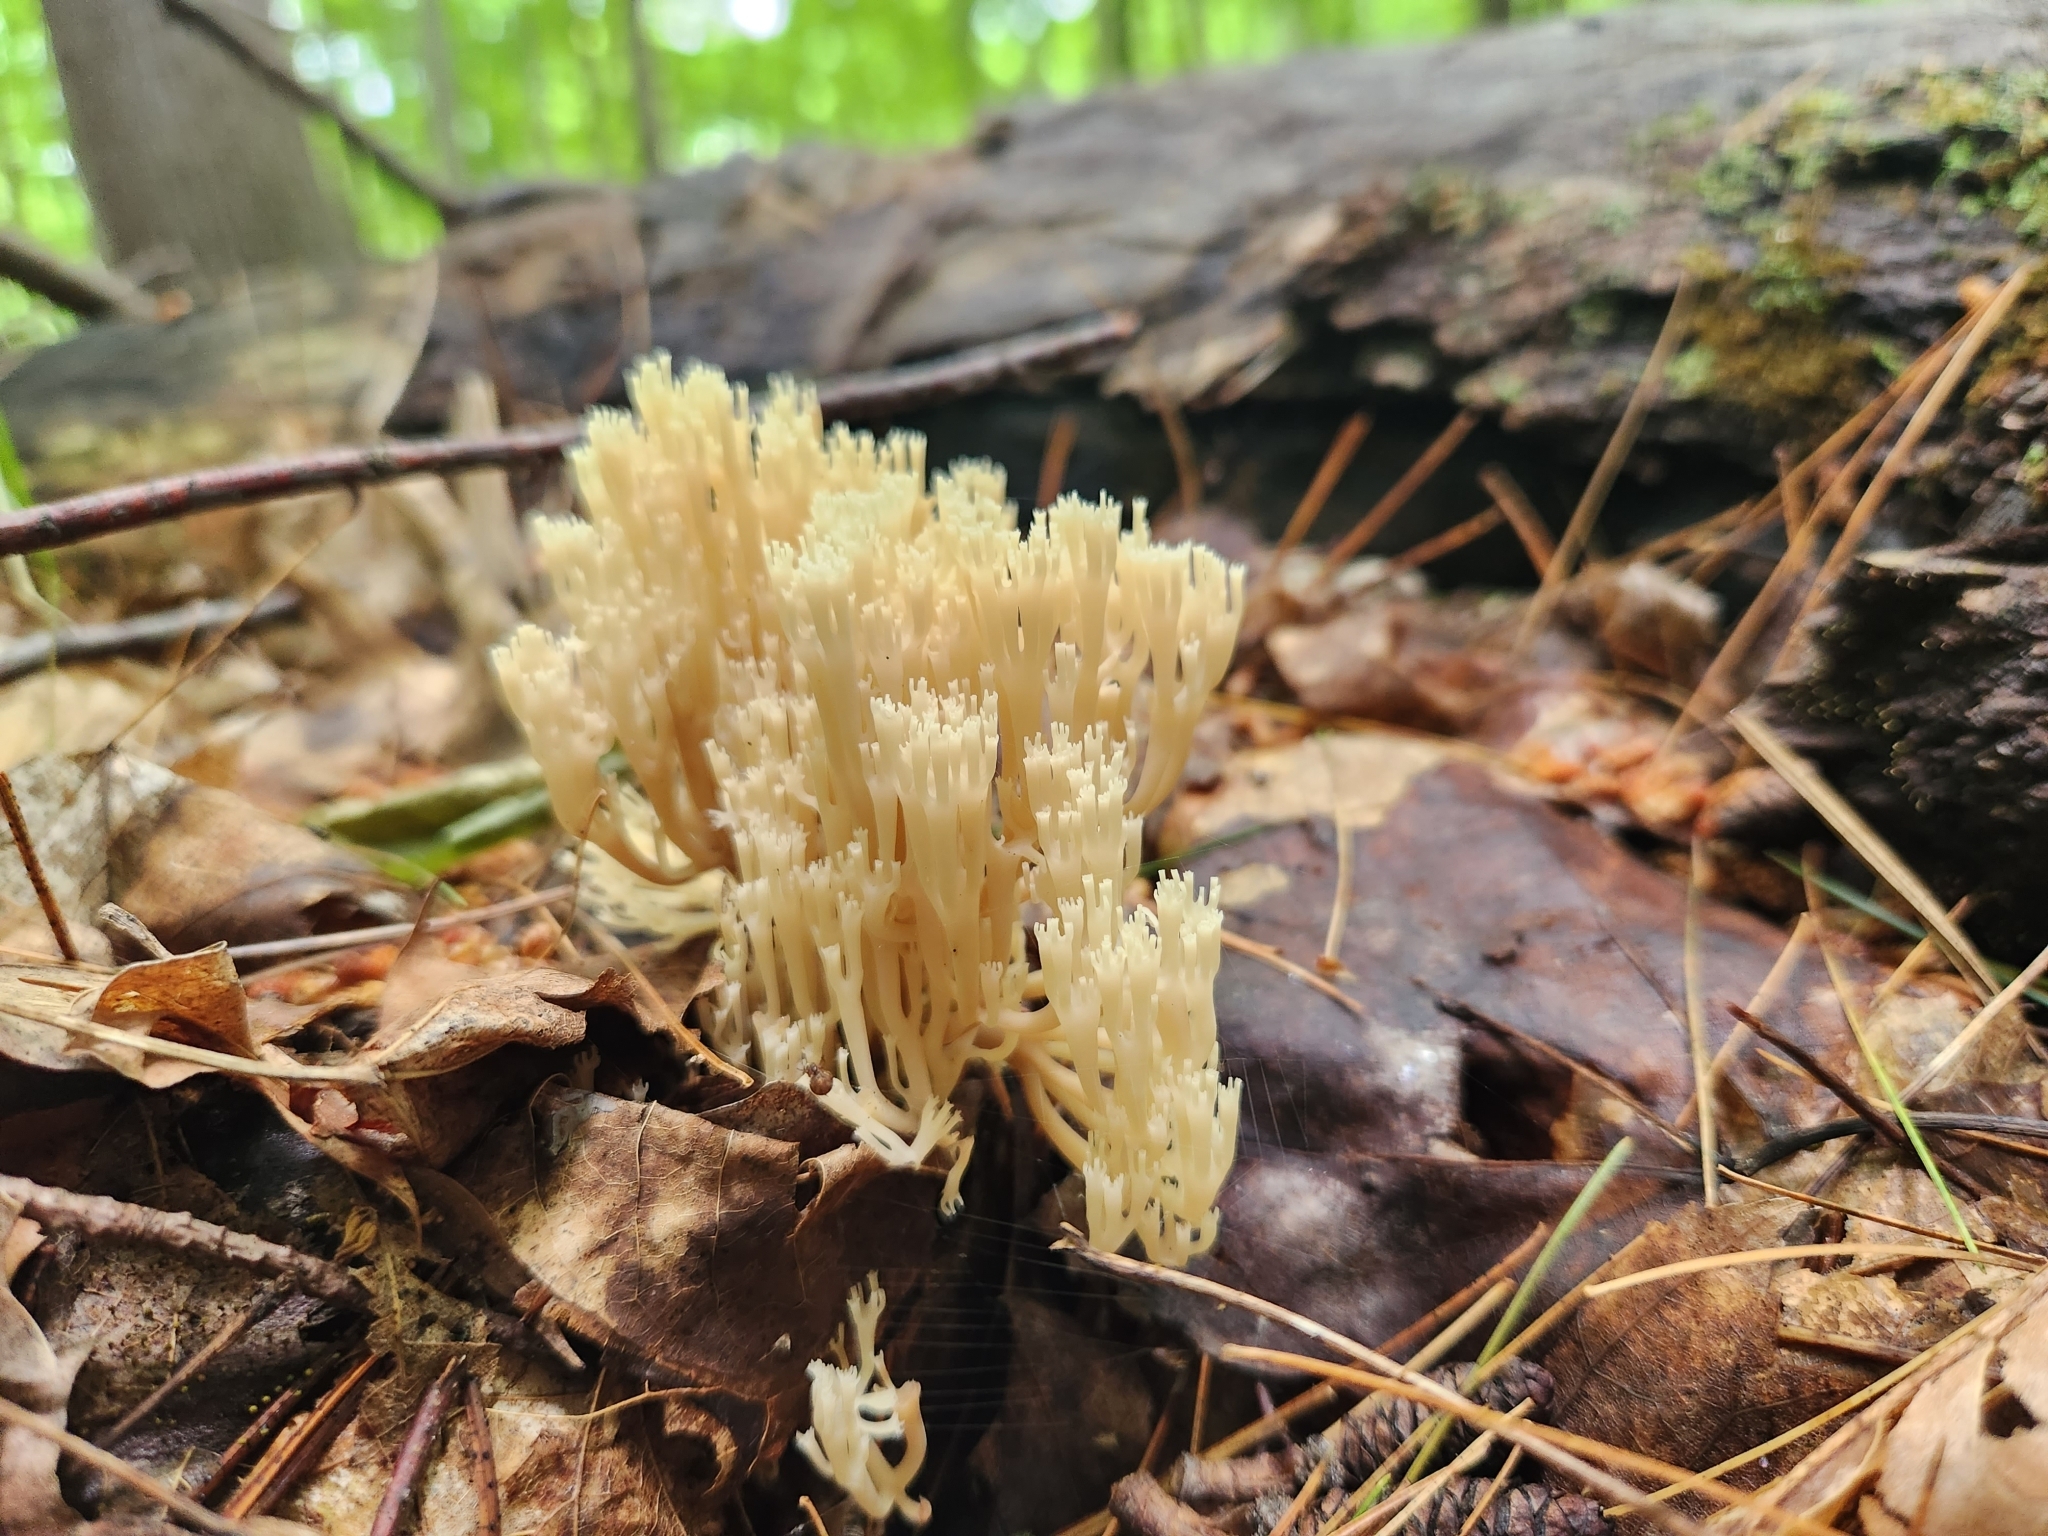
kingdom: Fungi
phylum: Basidiomycota
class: Agaricomycetes
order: Russulales
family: Auriscalpiaceae
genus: Artomyces
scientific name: Artomyces pyxidatus
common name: Crown-tipped coral fungus
